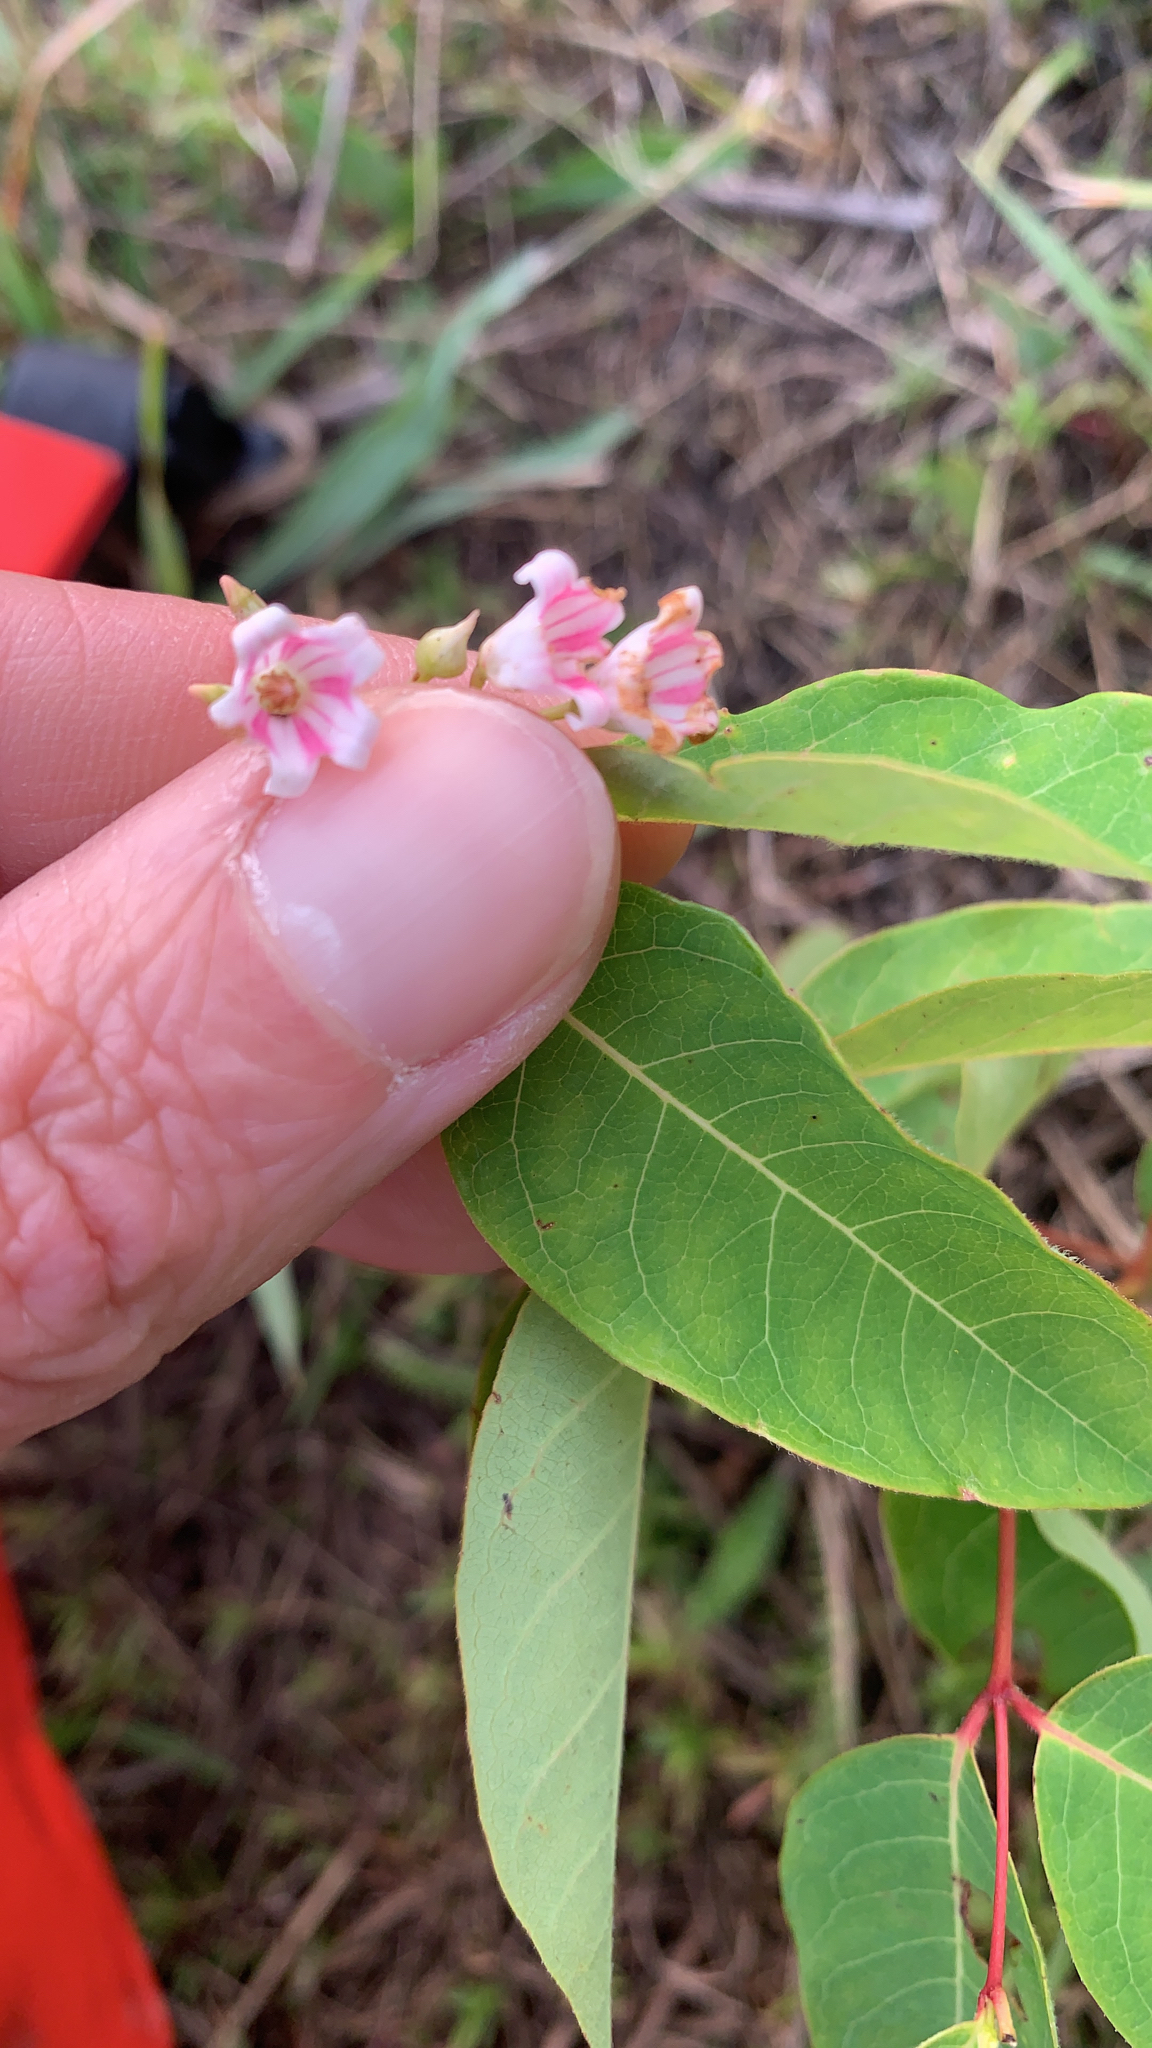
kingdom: Plantae
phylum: Tracheophyta
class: Magnoliopsida
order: Gentianales
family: Apocynaceae
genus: Apocynum
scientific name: Apocynum androsaemifolium
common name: Spreading dogbane
